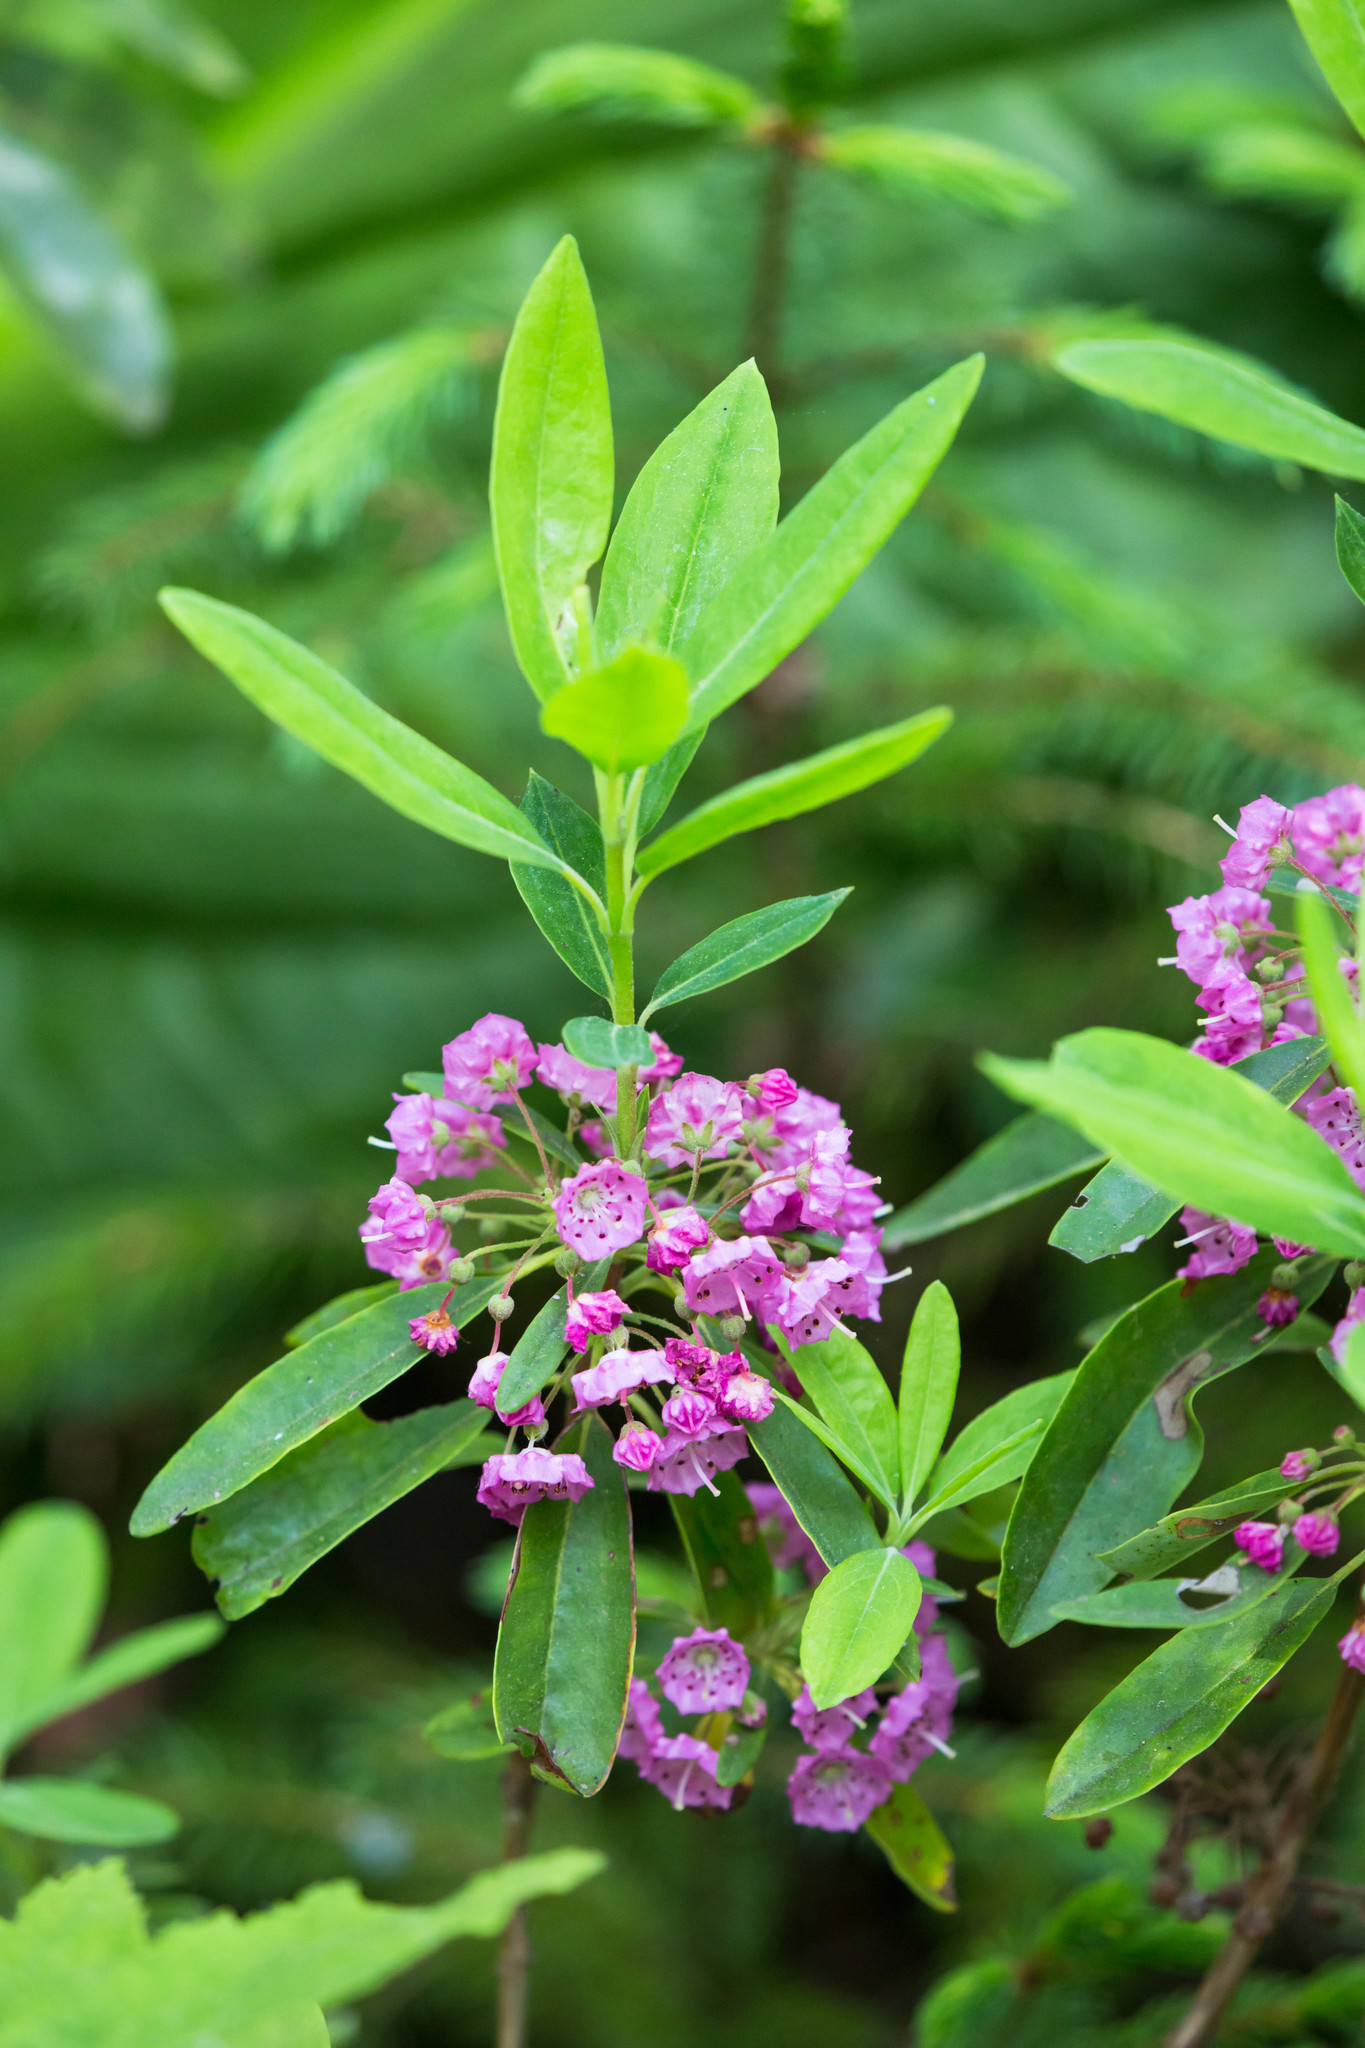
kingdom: Plantae
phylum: Tracheophyta
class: Magnoliopsida
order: Ericales
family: Ericaceae
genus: Kalmia
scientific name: Kalmia angustifolia
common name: Sheep-laurel
